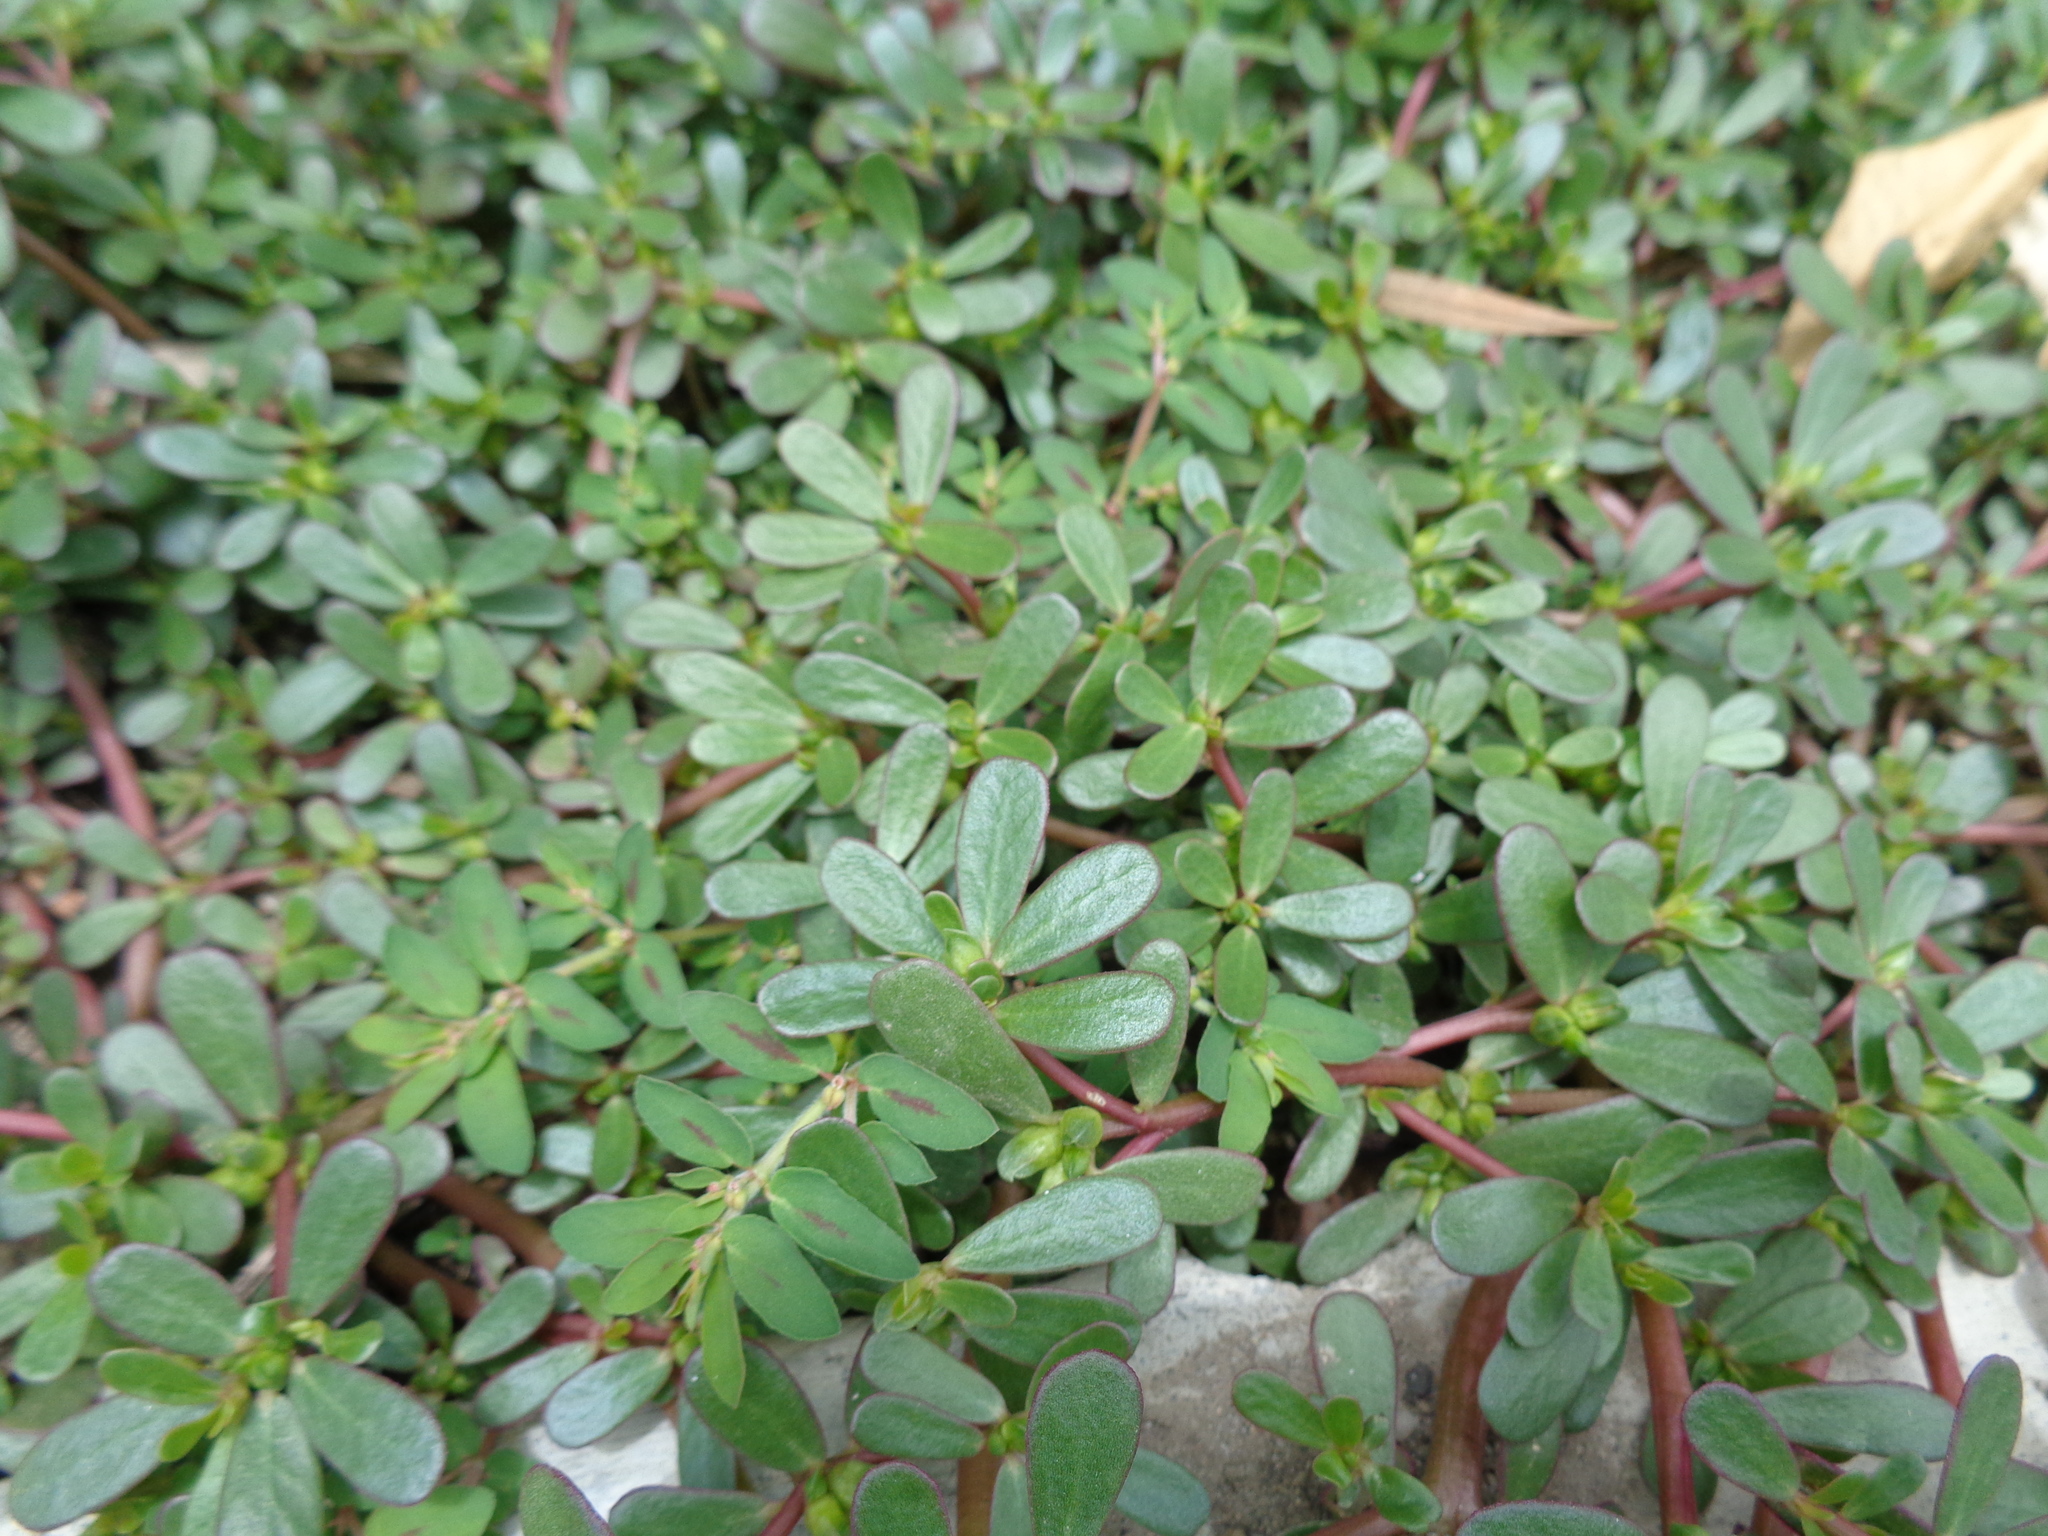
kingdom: Plantae
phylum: Tracheophyta
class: Magnoliopsida
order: Caryophyllales
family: Portulacaceae
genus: Portulaca
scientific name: Portulaca oleracea
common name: Common purslane
